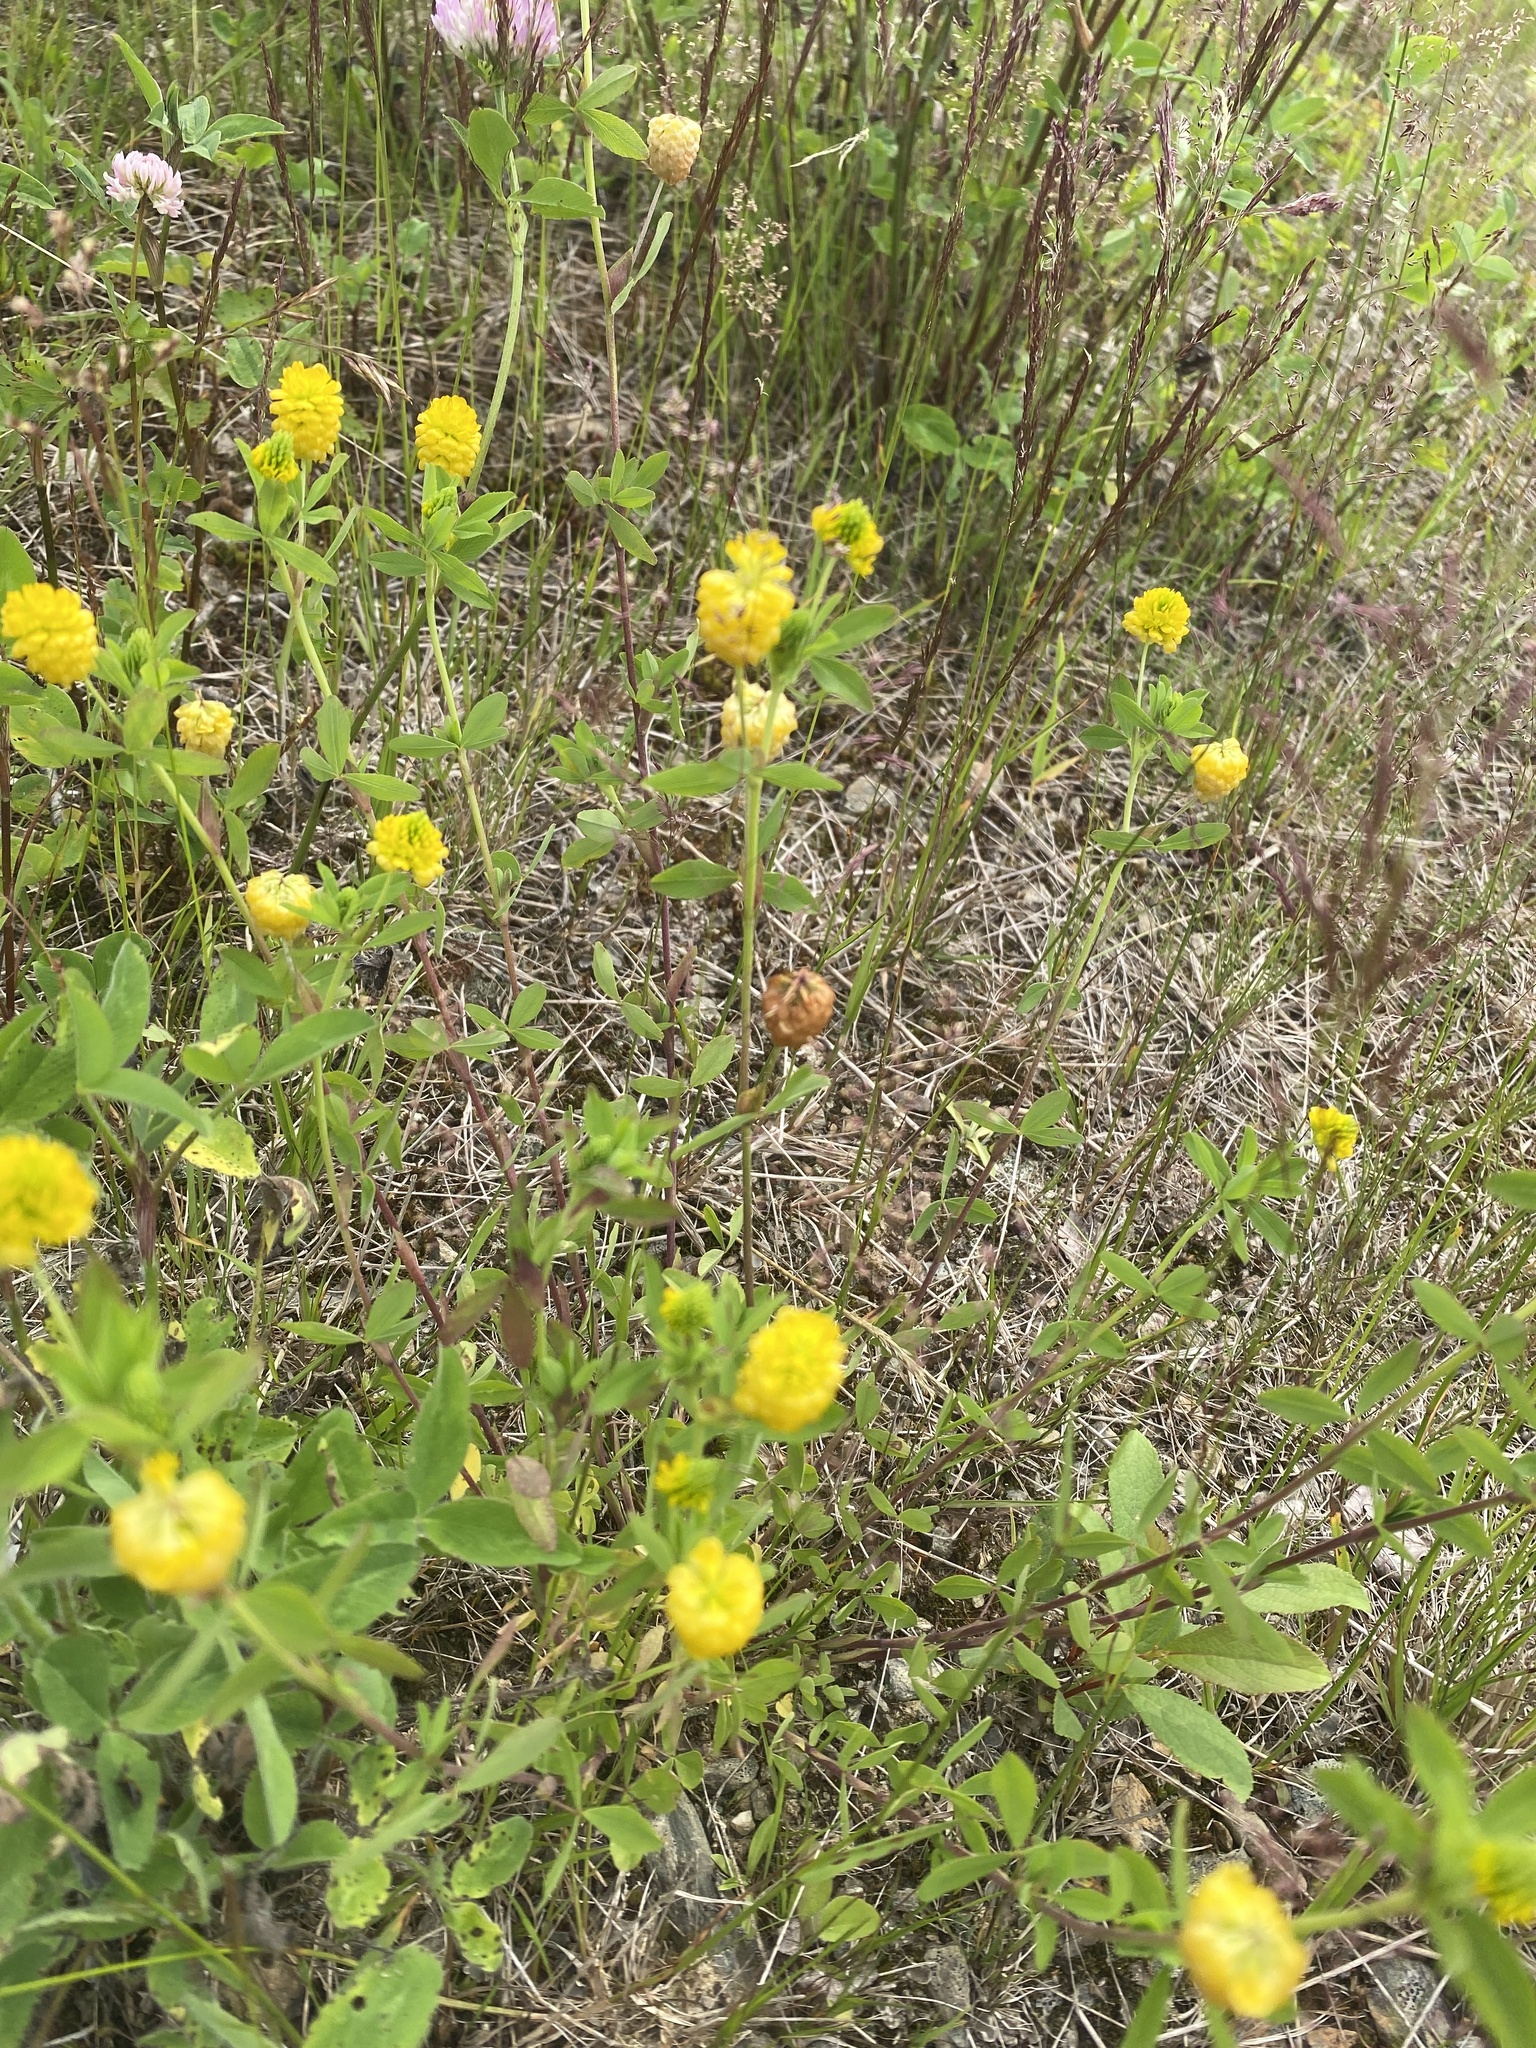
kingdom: Plantae
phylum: Tracheophyta
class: Magnoliopsida
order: Fabales
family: Fabaceae
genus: Trifolium
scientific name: Trifolium aureum
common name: Golden clover
